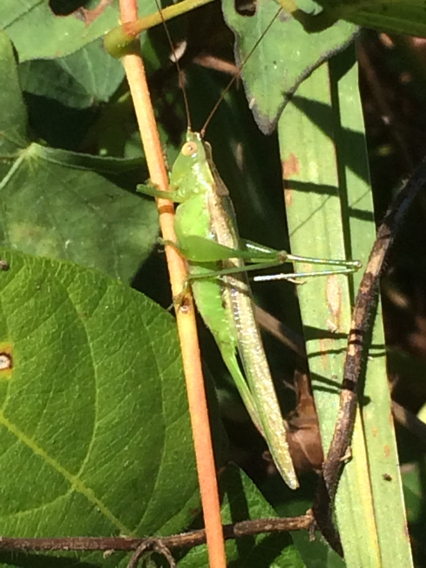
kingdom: Animalia
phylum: Arthropoda
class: Insecta
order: Orthoptera
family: Tettigoniidae
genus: Conocephalus
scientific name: Conocephalus fasciatus
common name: Slender meadow katydid
